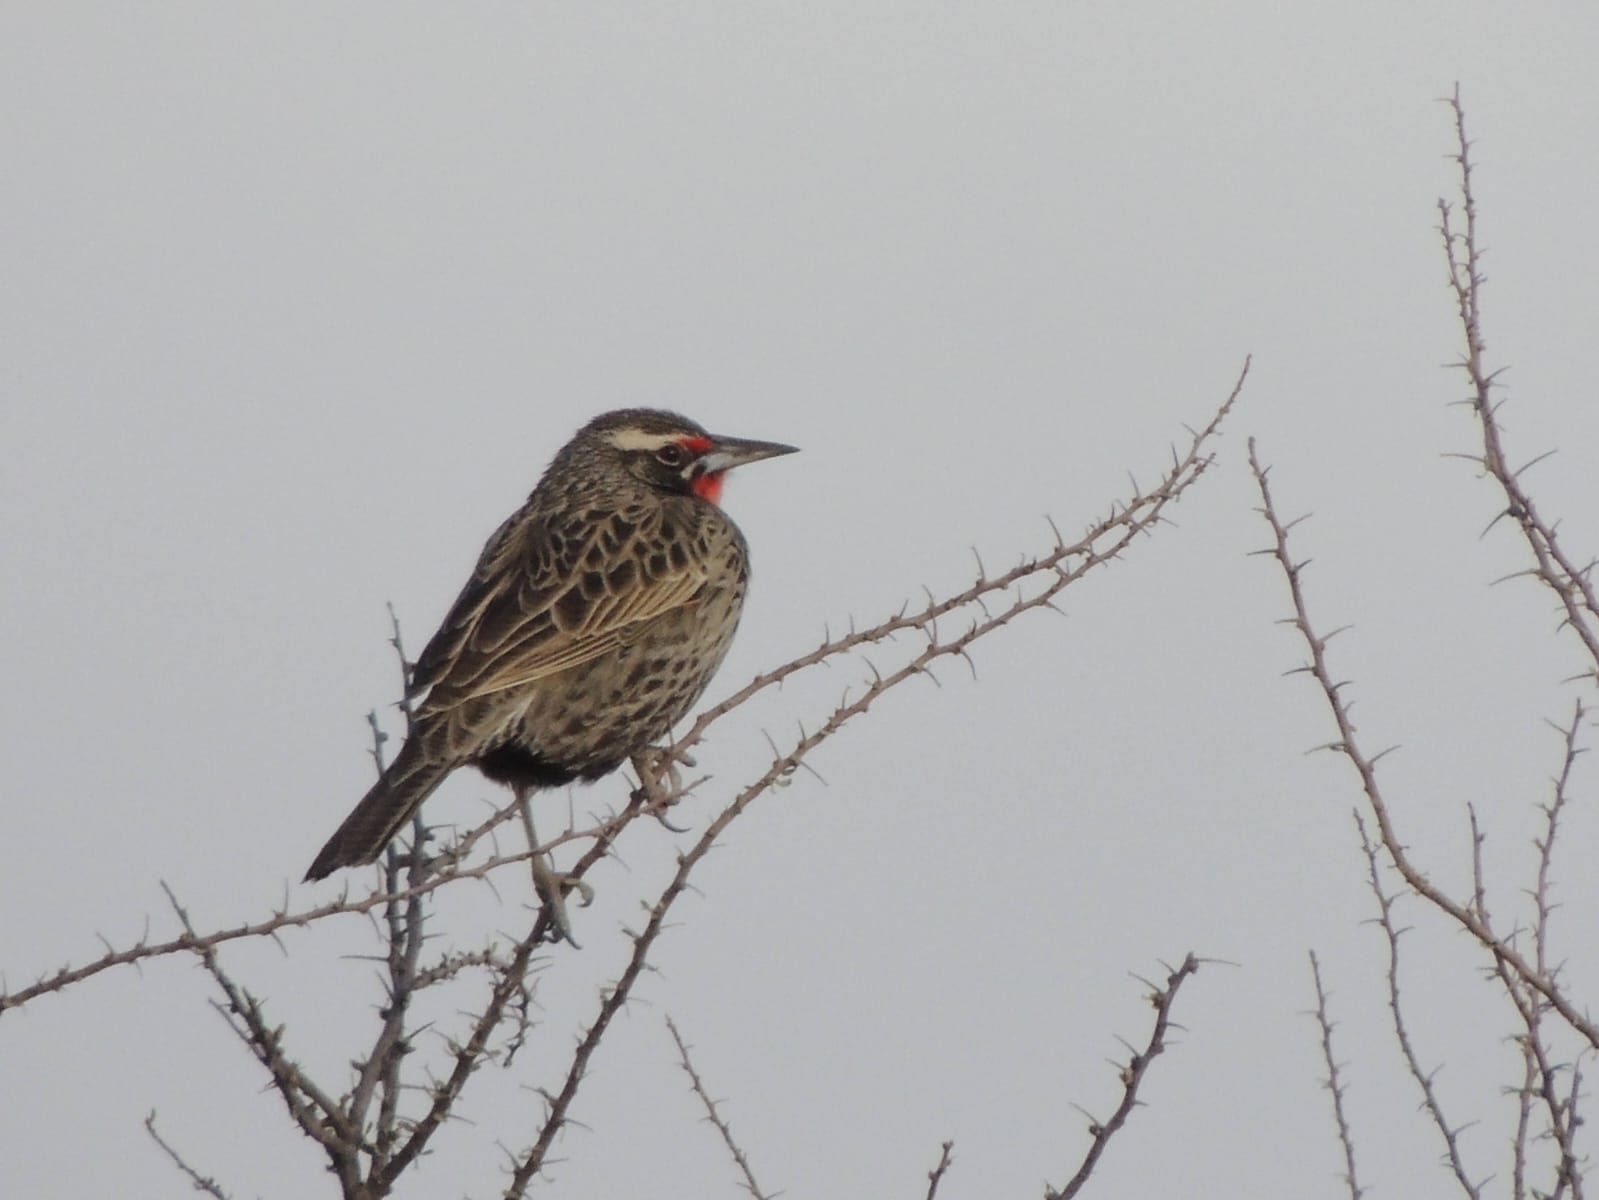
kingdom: Animalia
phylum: Chordata
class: Aves
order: Passeriformes
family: Icteridae
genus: Sturnella
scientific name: Sturnella loyca
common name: Long-tailed meadowlark
